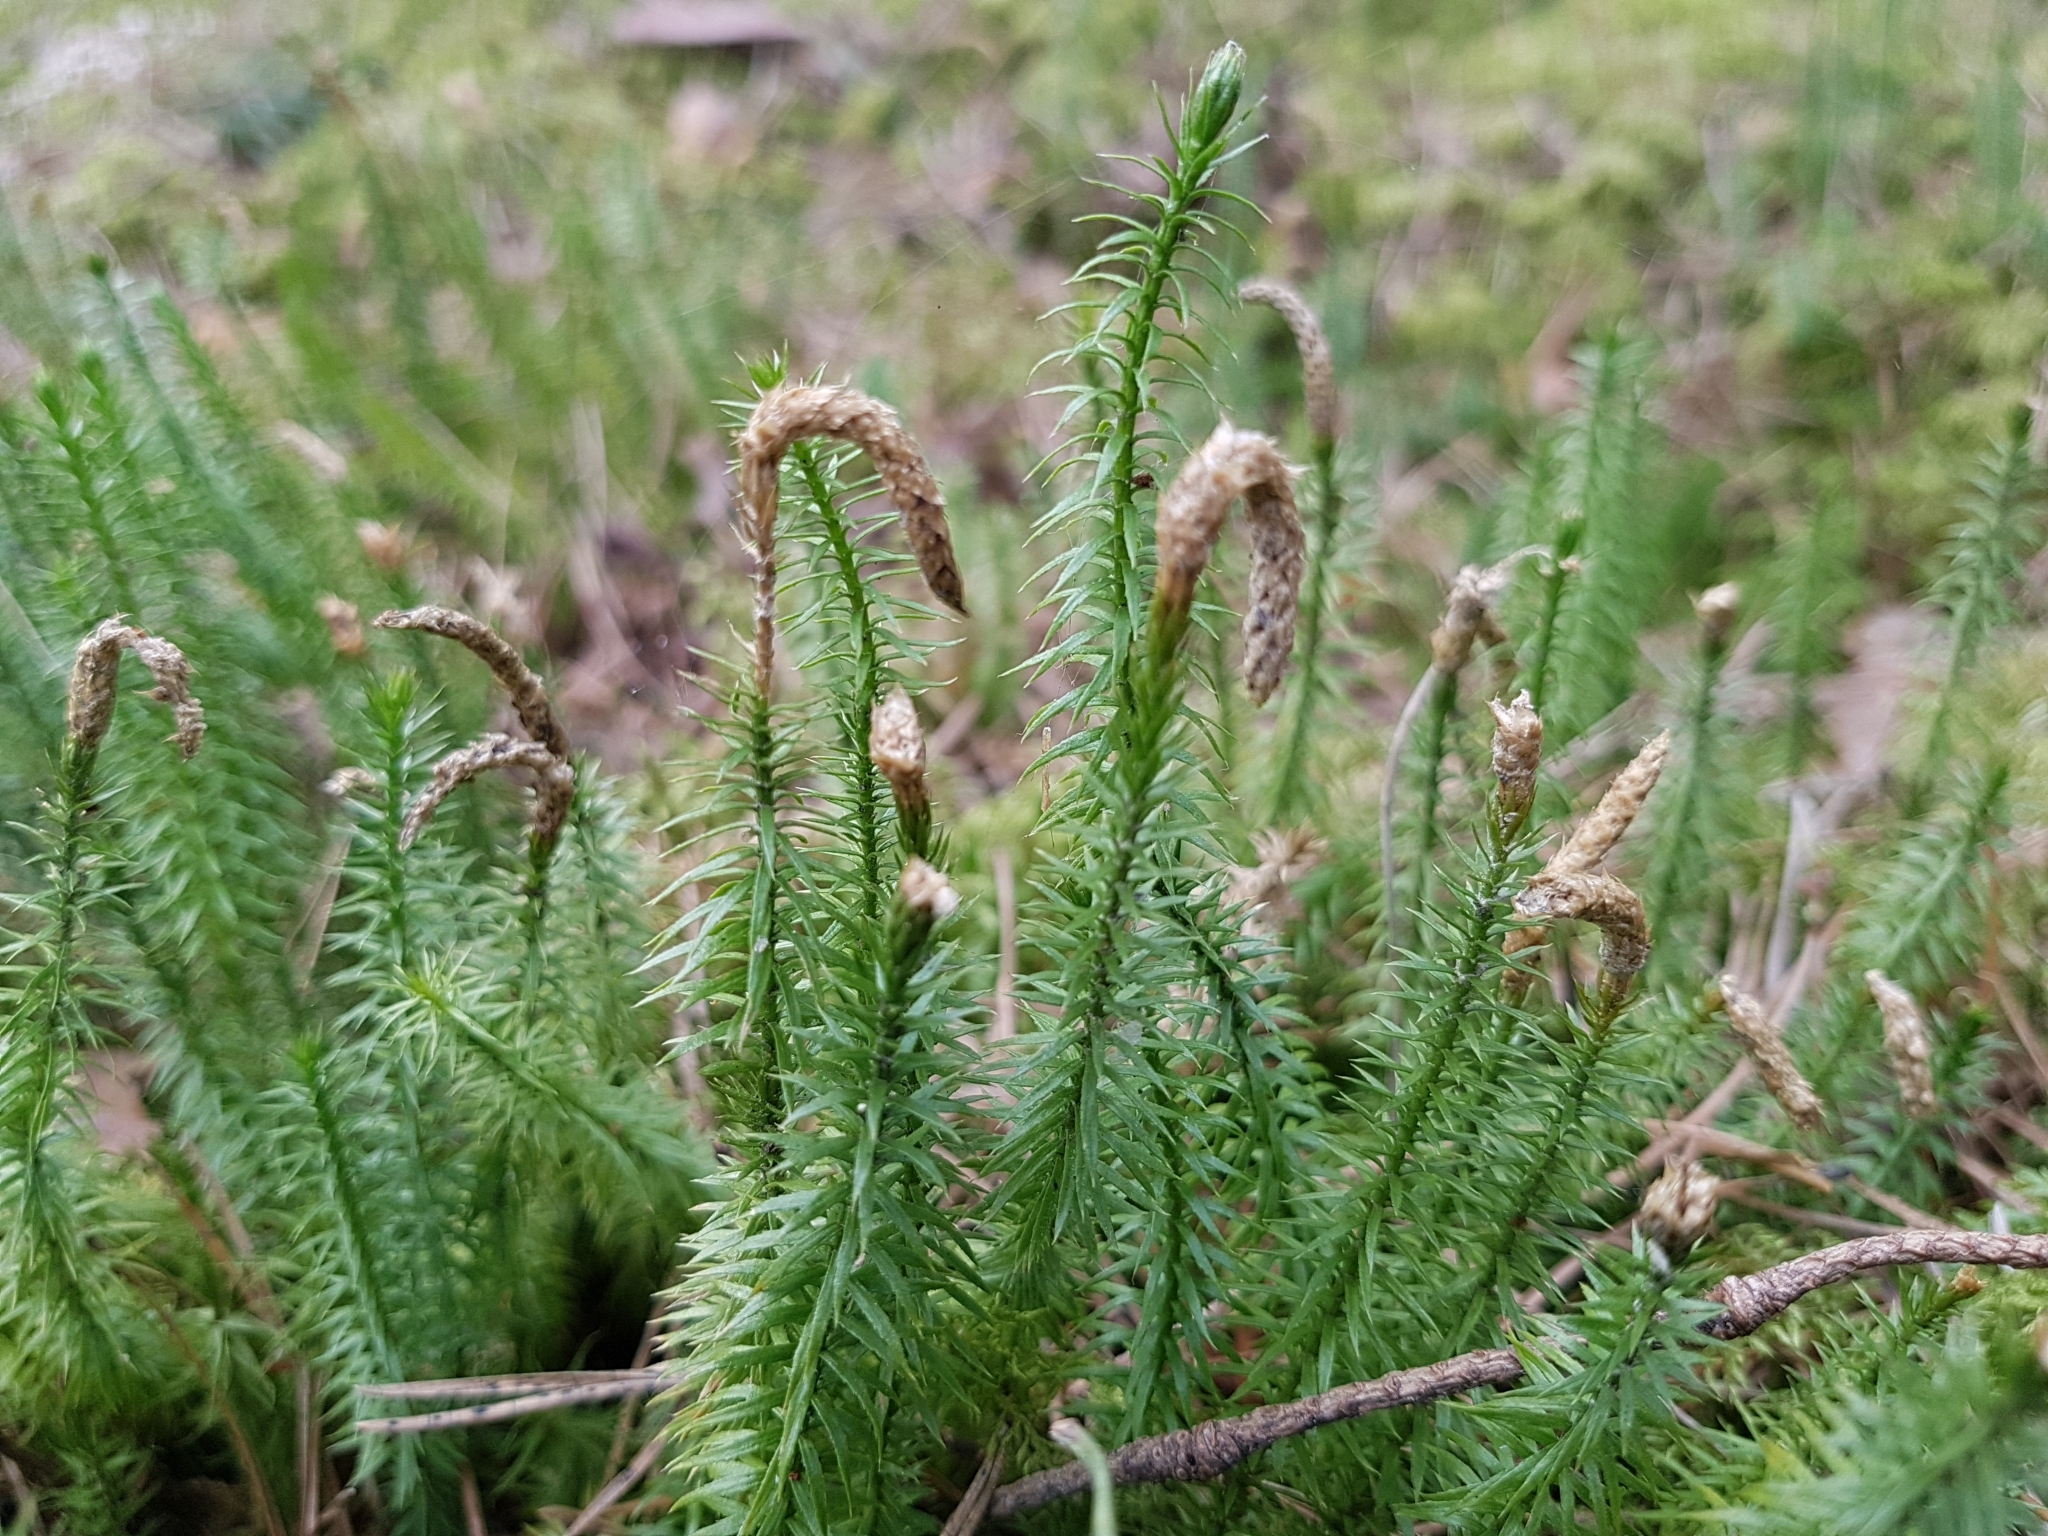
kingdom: Plantae
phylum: Tracheophyta
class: Lycopodiopsida
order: Lycopodiales
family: Lycopodiaceae
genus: Spinulum
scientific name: Spinulum annotinum
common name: Interrupted club-moss
